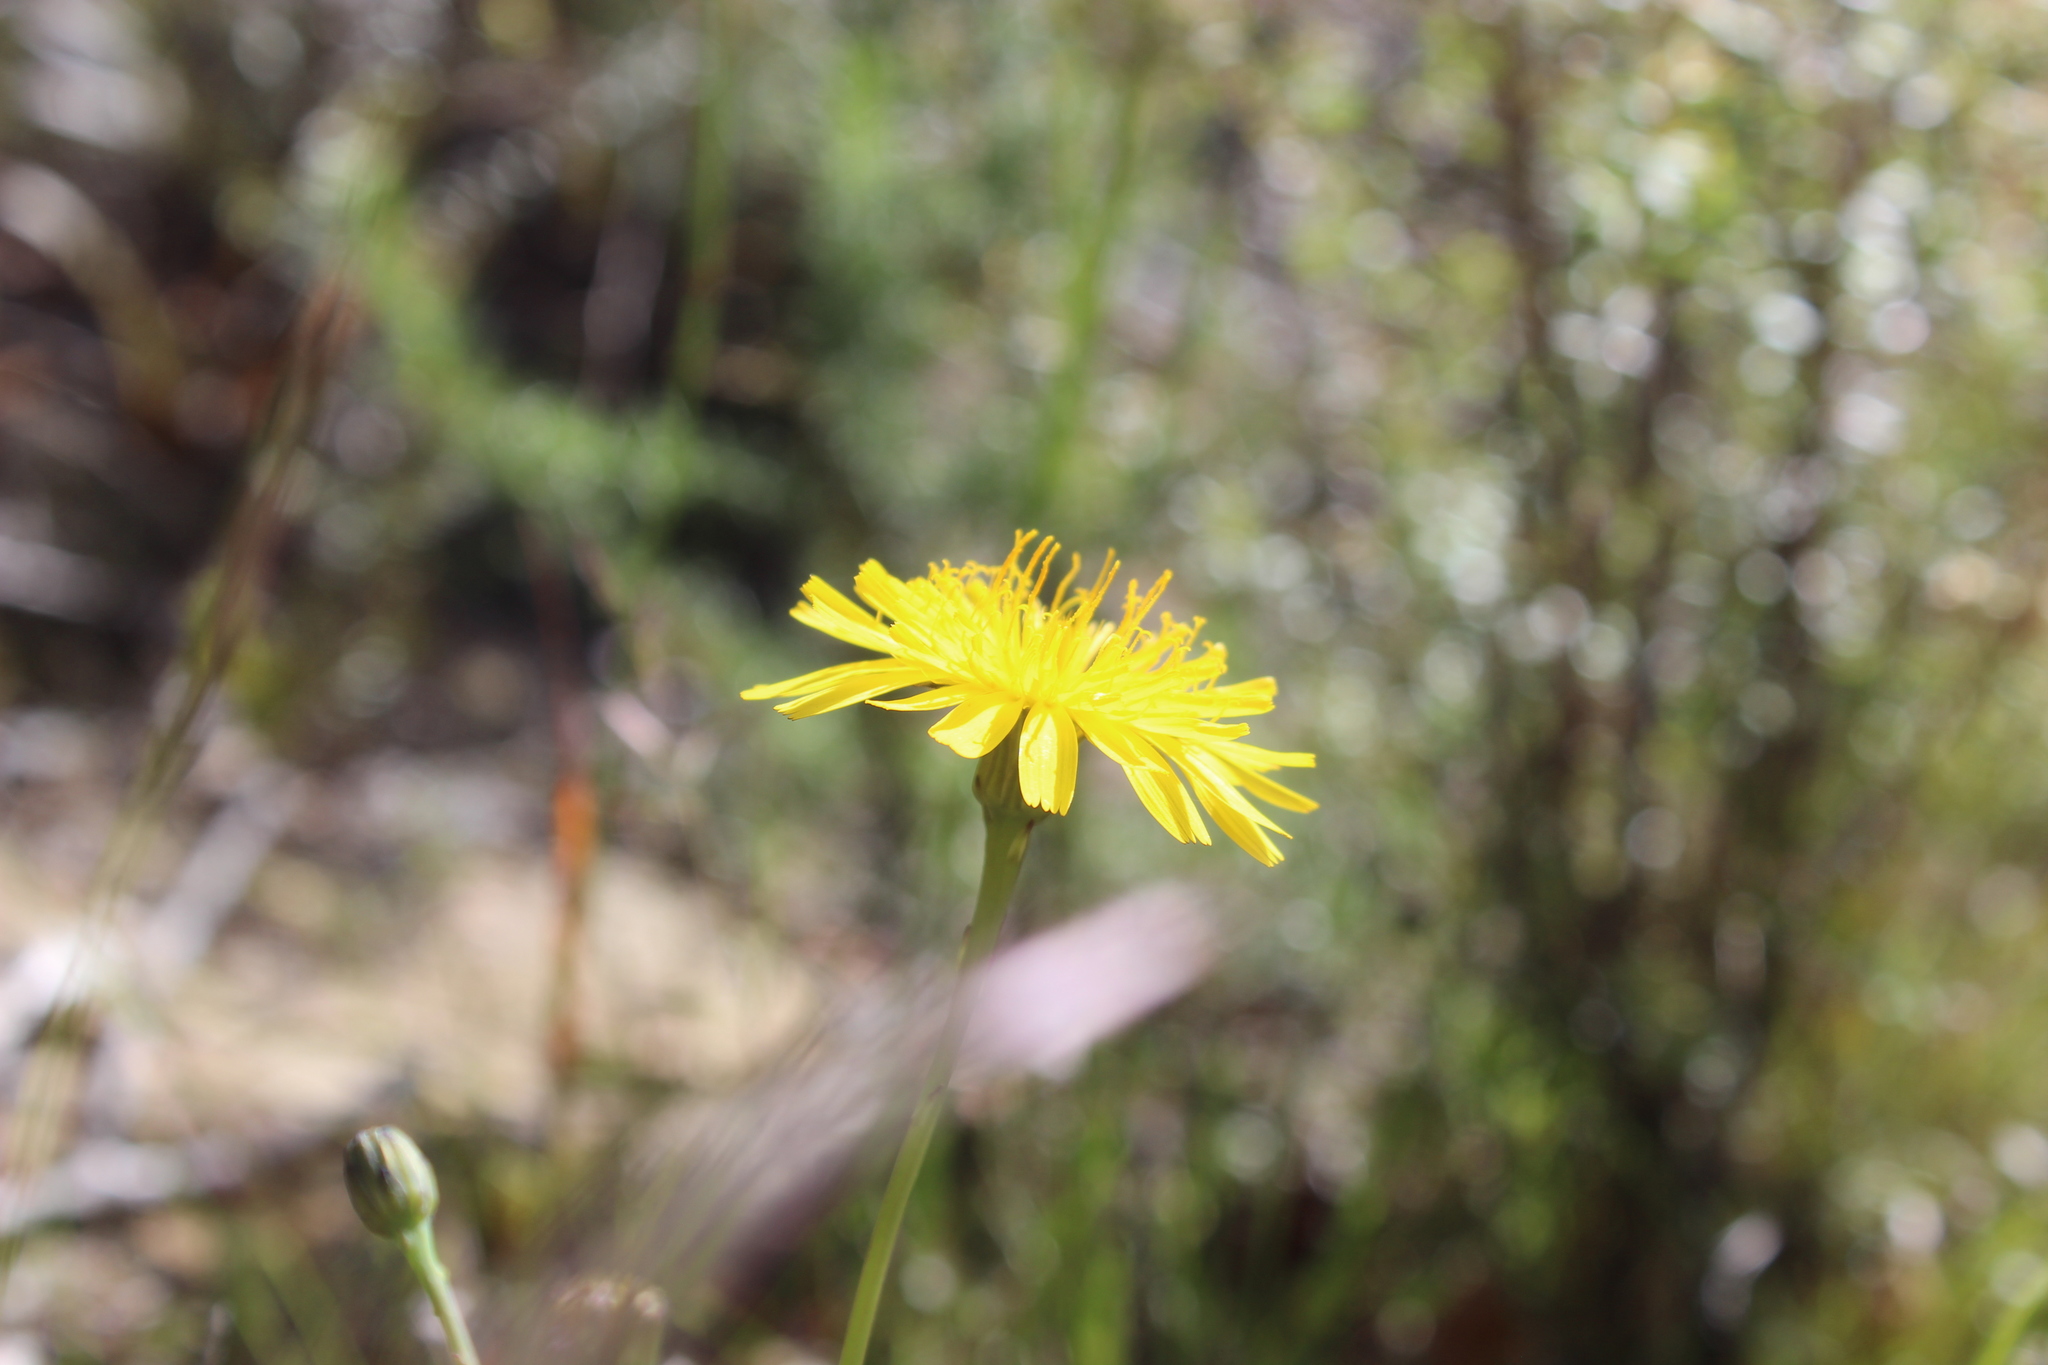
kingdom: Plantae
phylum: Tracheophyta
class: Magnoliopsida
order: Asterales
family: Asteraceae
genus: Hypochaeris
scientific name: Hypochaeris radicata
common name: Flatweed
